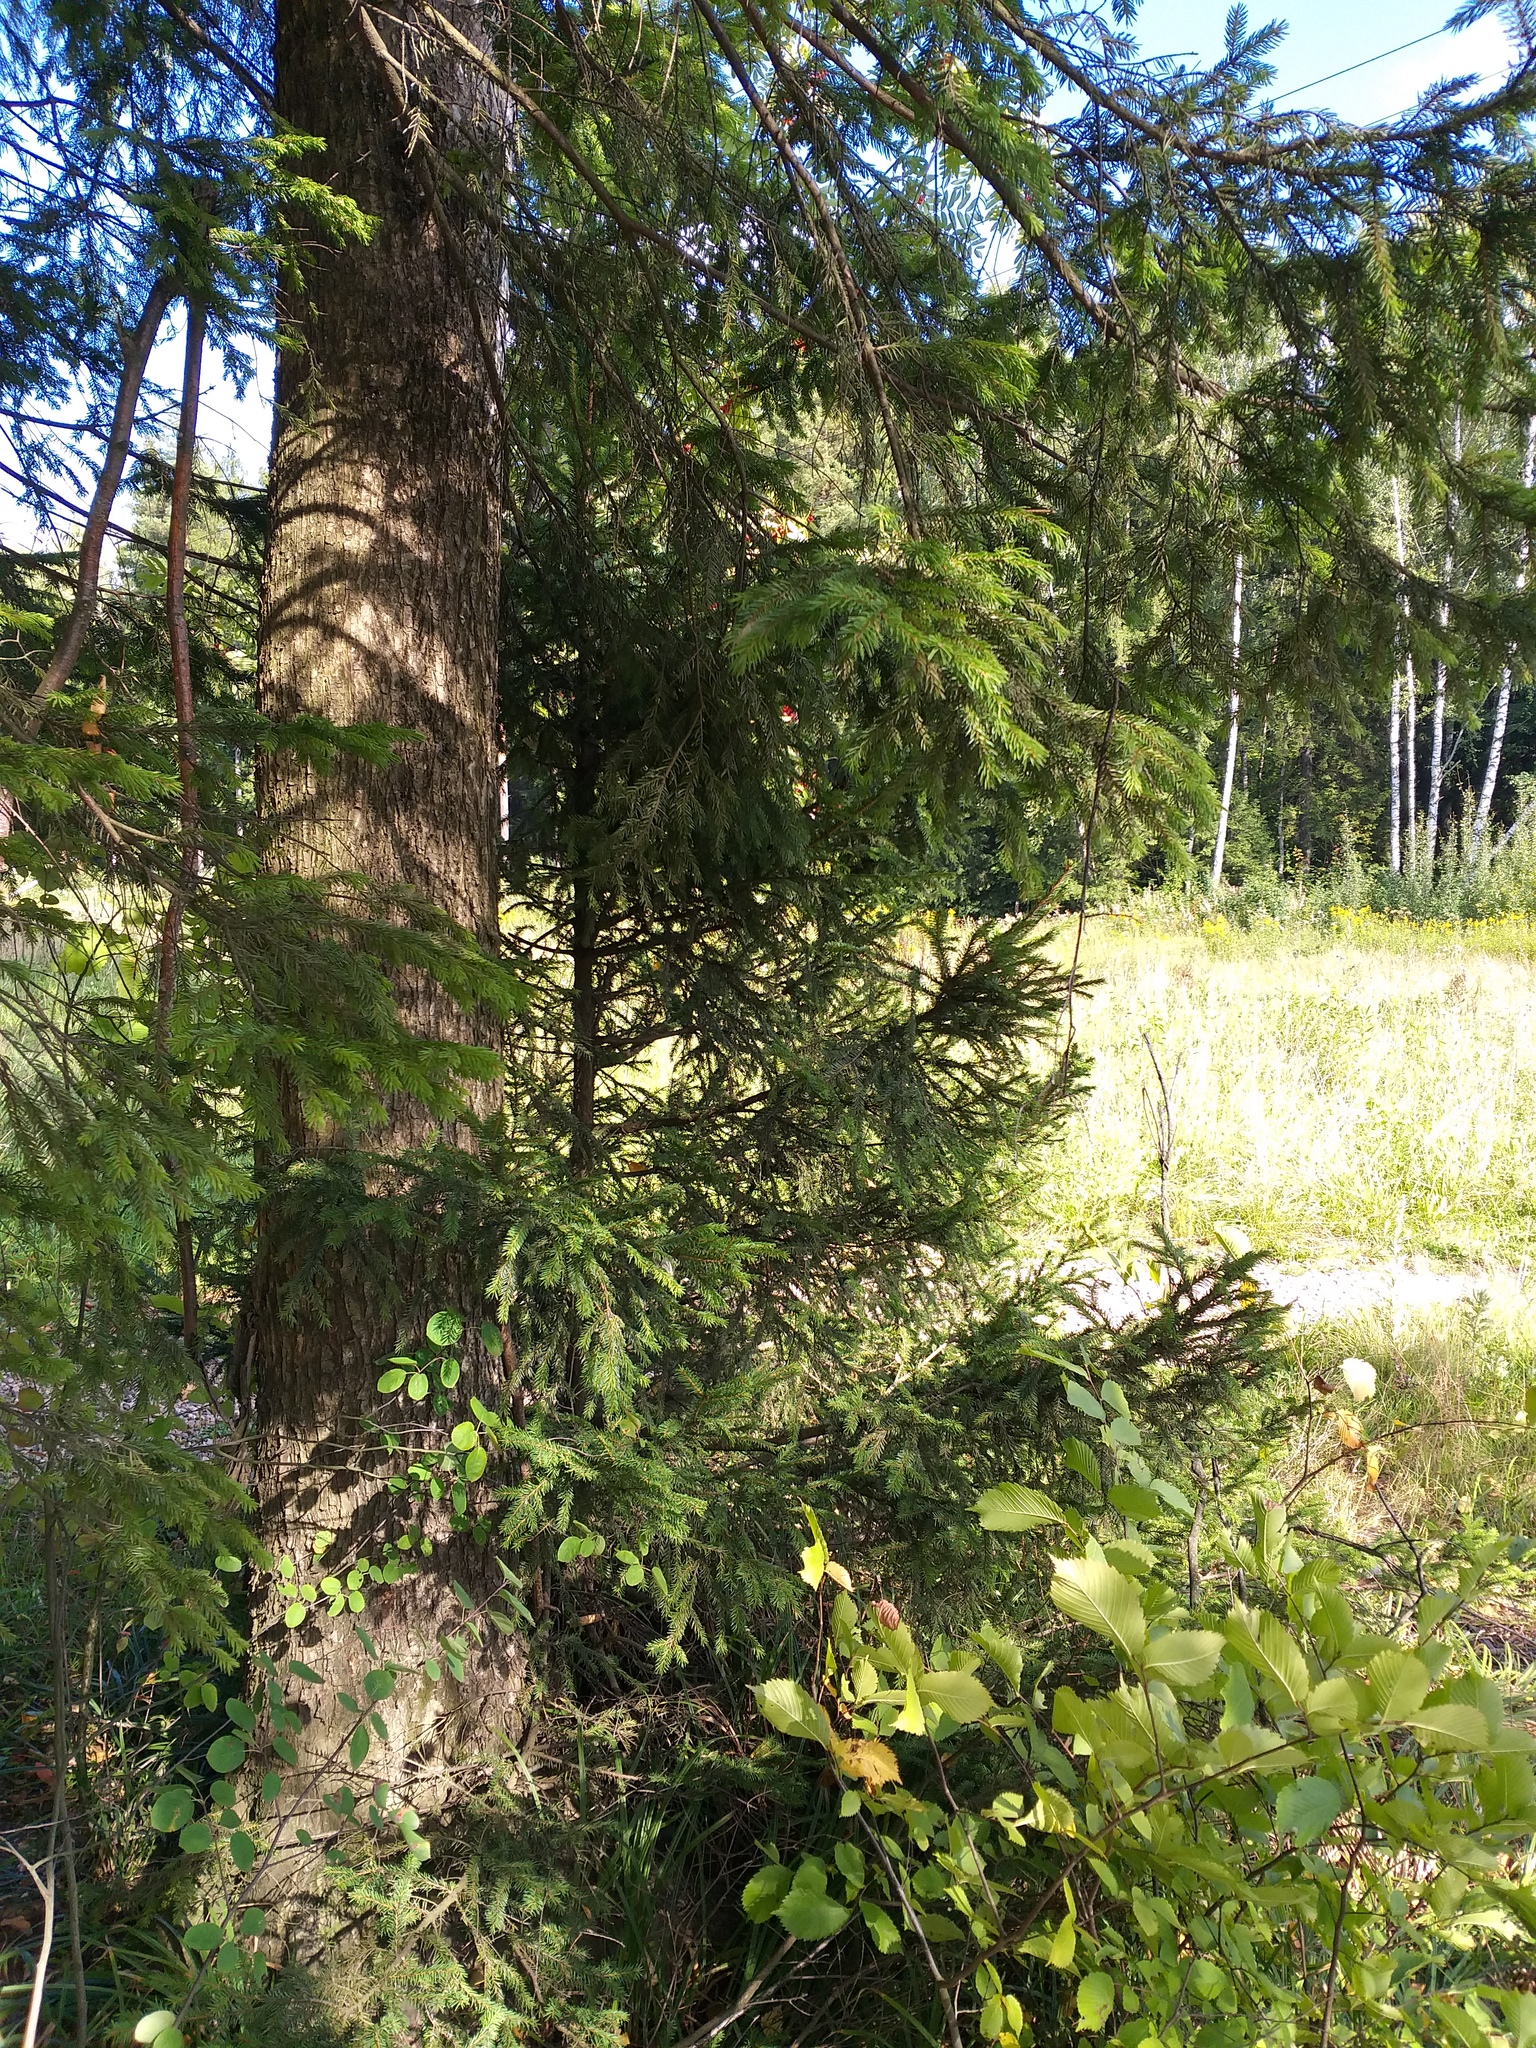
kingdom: Plantae
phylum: Tracheophyta
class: Pinopsida
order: Pinales
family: Pinaceae
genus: Picea
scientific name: Picea abies
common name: Norway spruce
